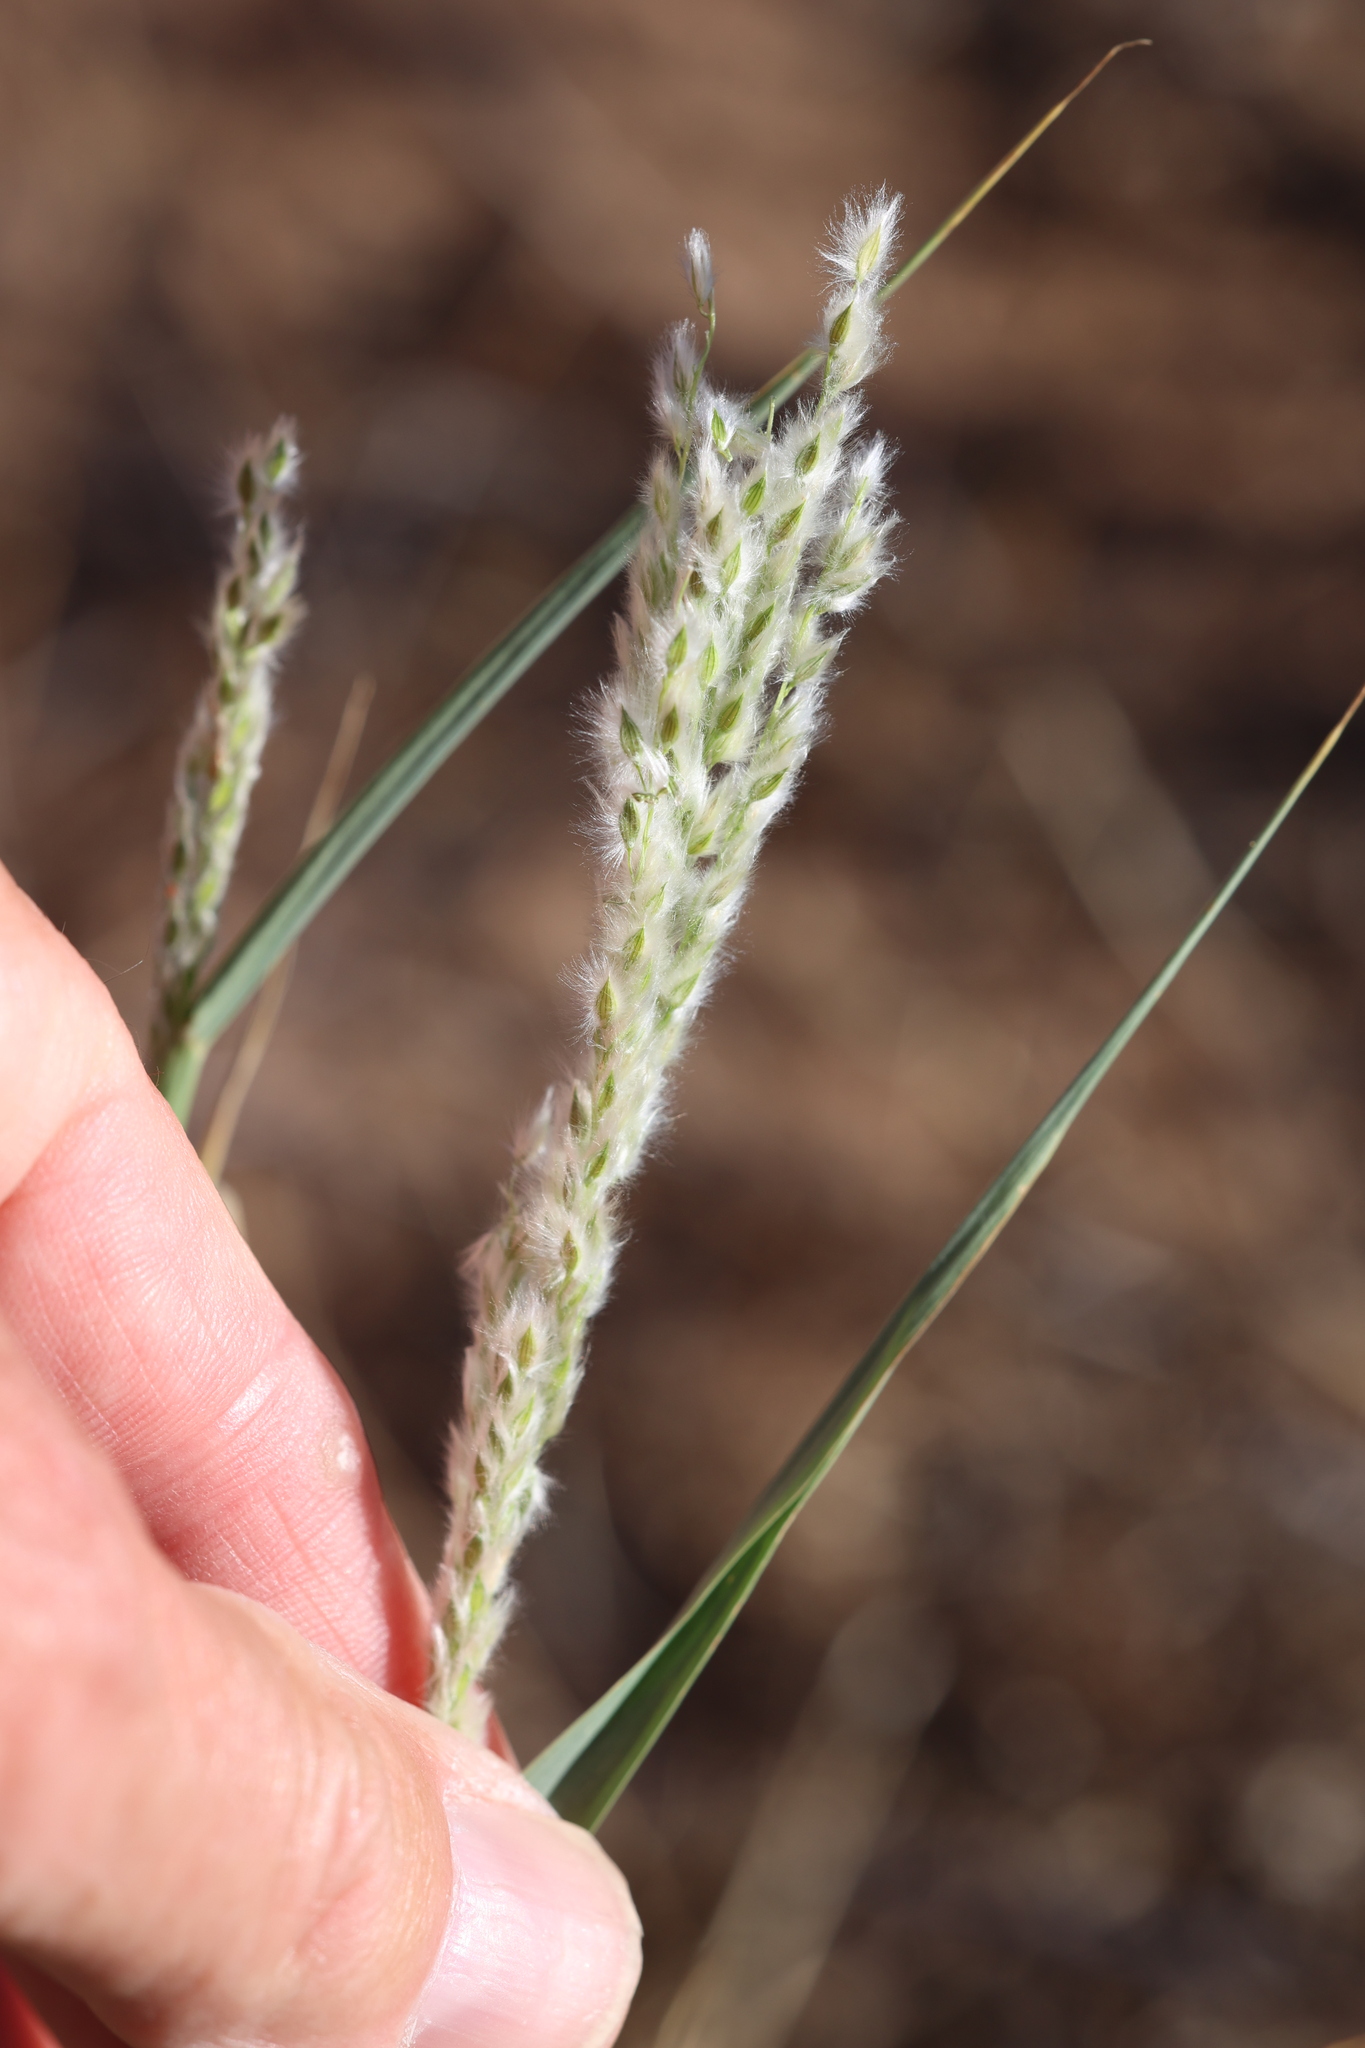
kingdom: Plantae
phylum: Tracheophyta
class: Liliopsida
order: Poales
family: Poaceae
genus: Digitaria
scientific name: Digitaria californica
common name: Arizona cottontop
